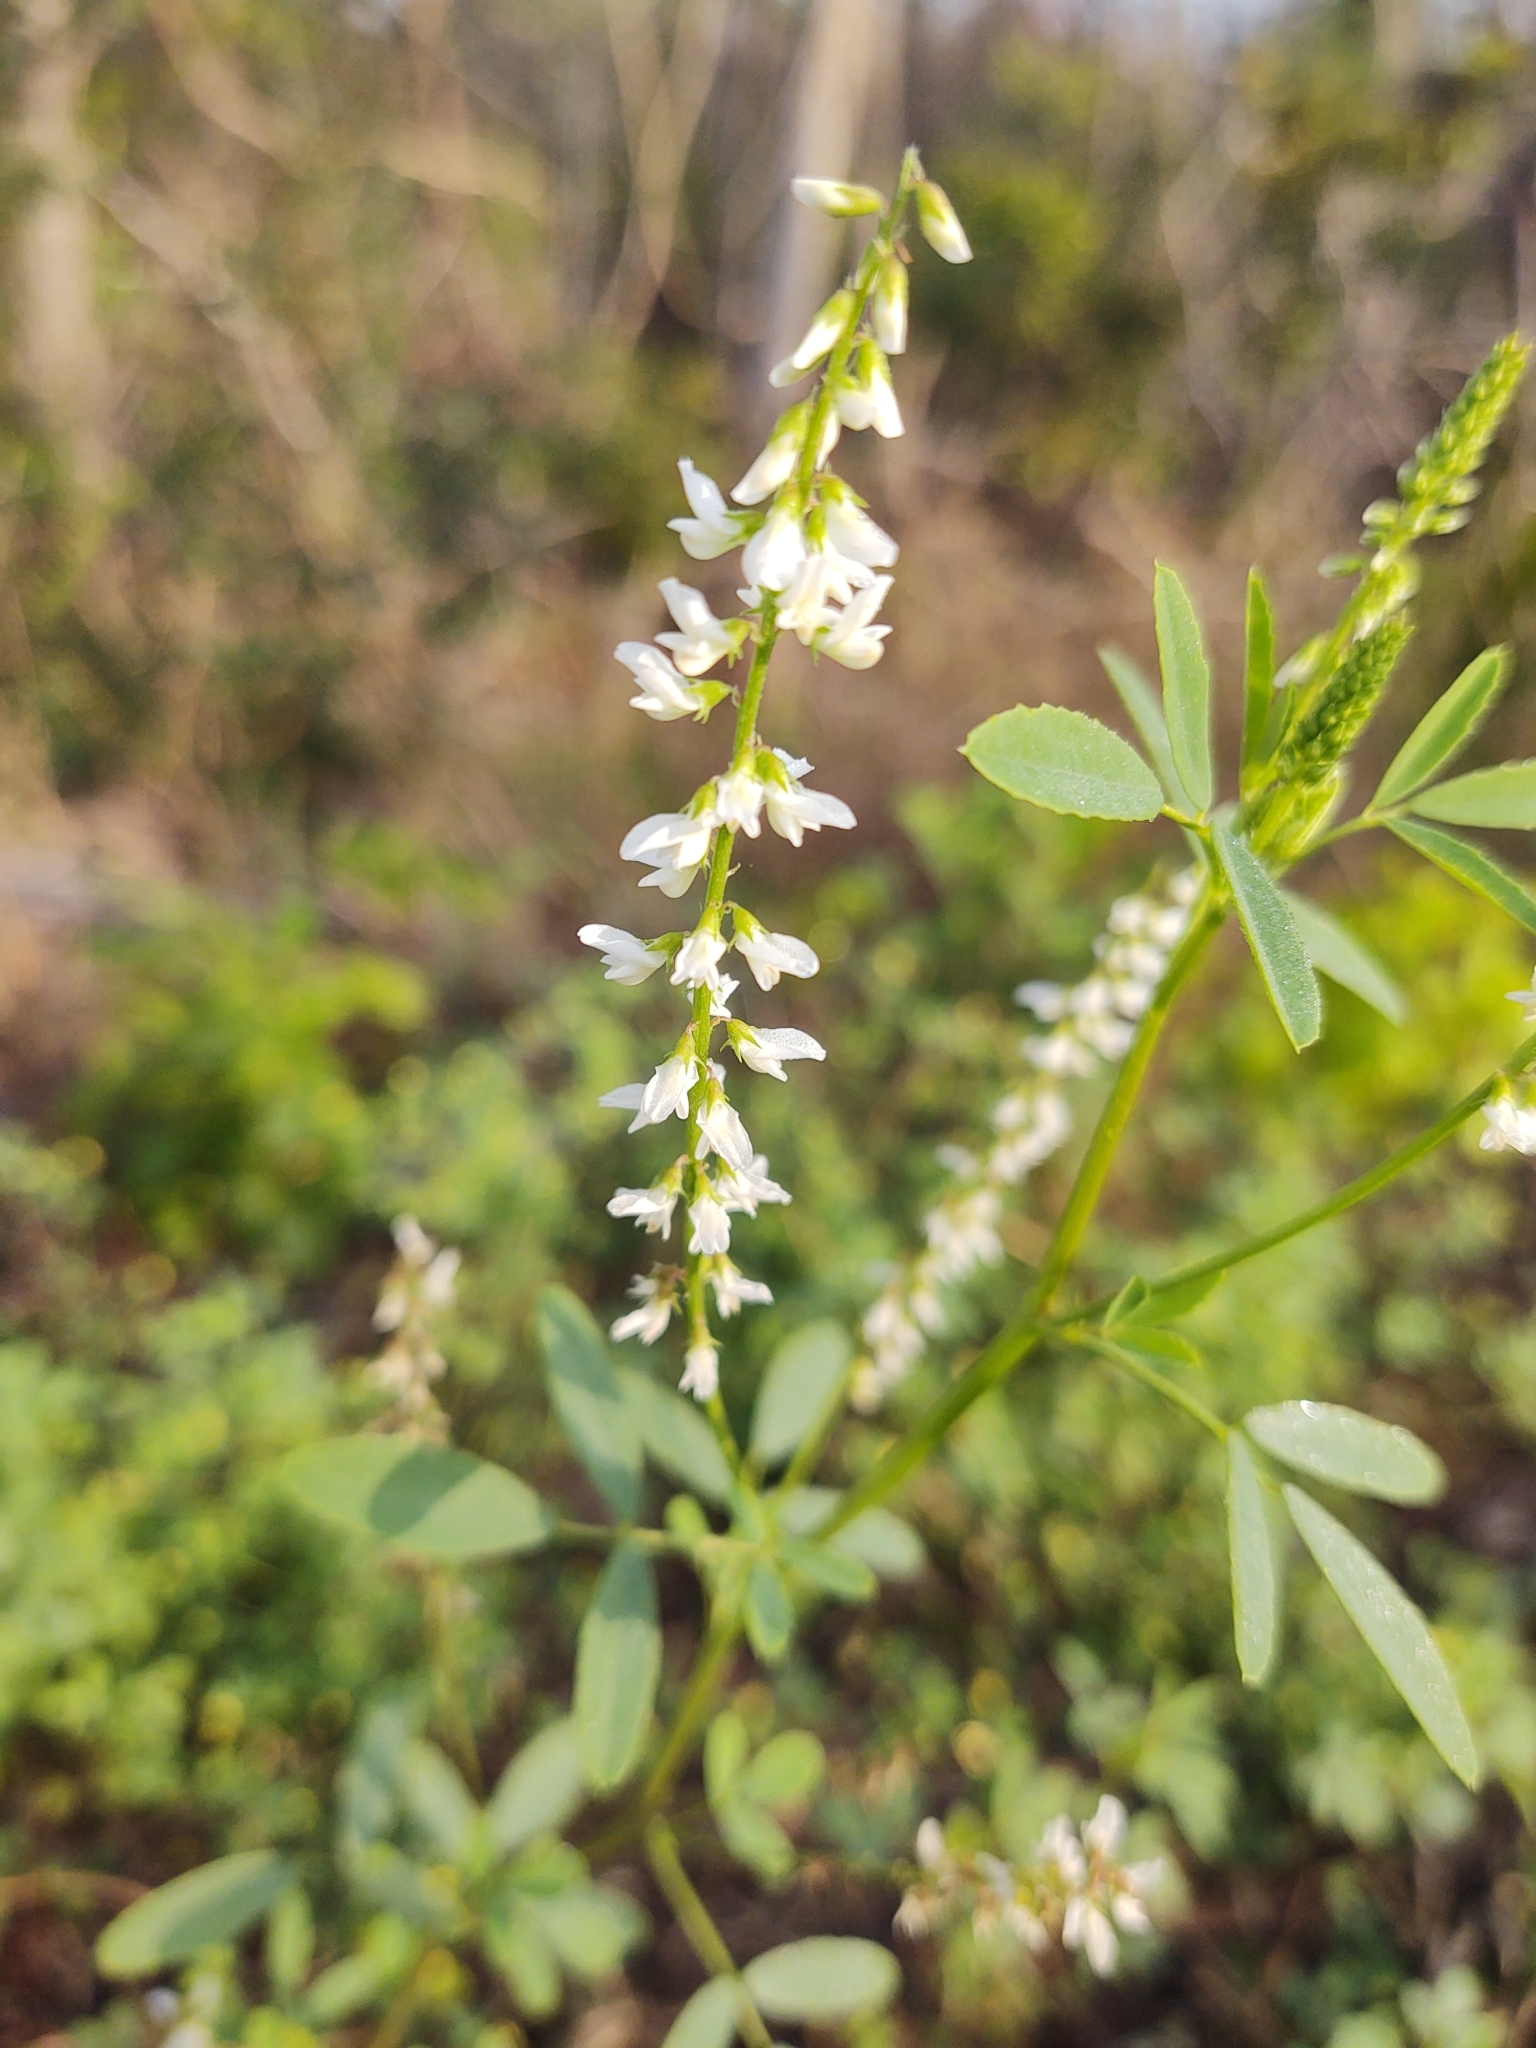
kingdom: Plantae
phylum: Tracheophyta
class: Magnoliopsida
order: Fabales
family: Fabaceae
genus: Melilotus
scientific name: Melilotus albus
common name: White melilot
